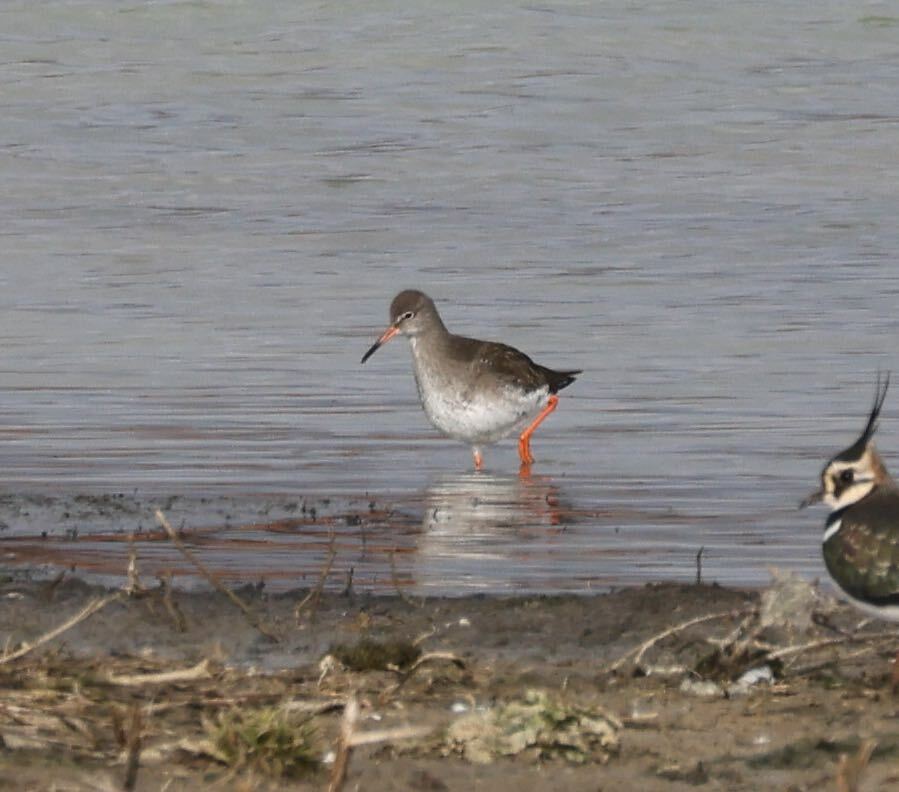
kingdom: Animalia
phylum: Chordata
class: Aves
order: Charadriiformes
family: Scolopacidae
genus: Tringa
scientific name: Tringa totanus
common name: Common redshank
